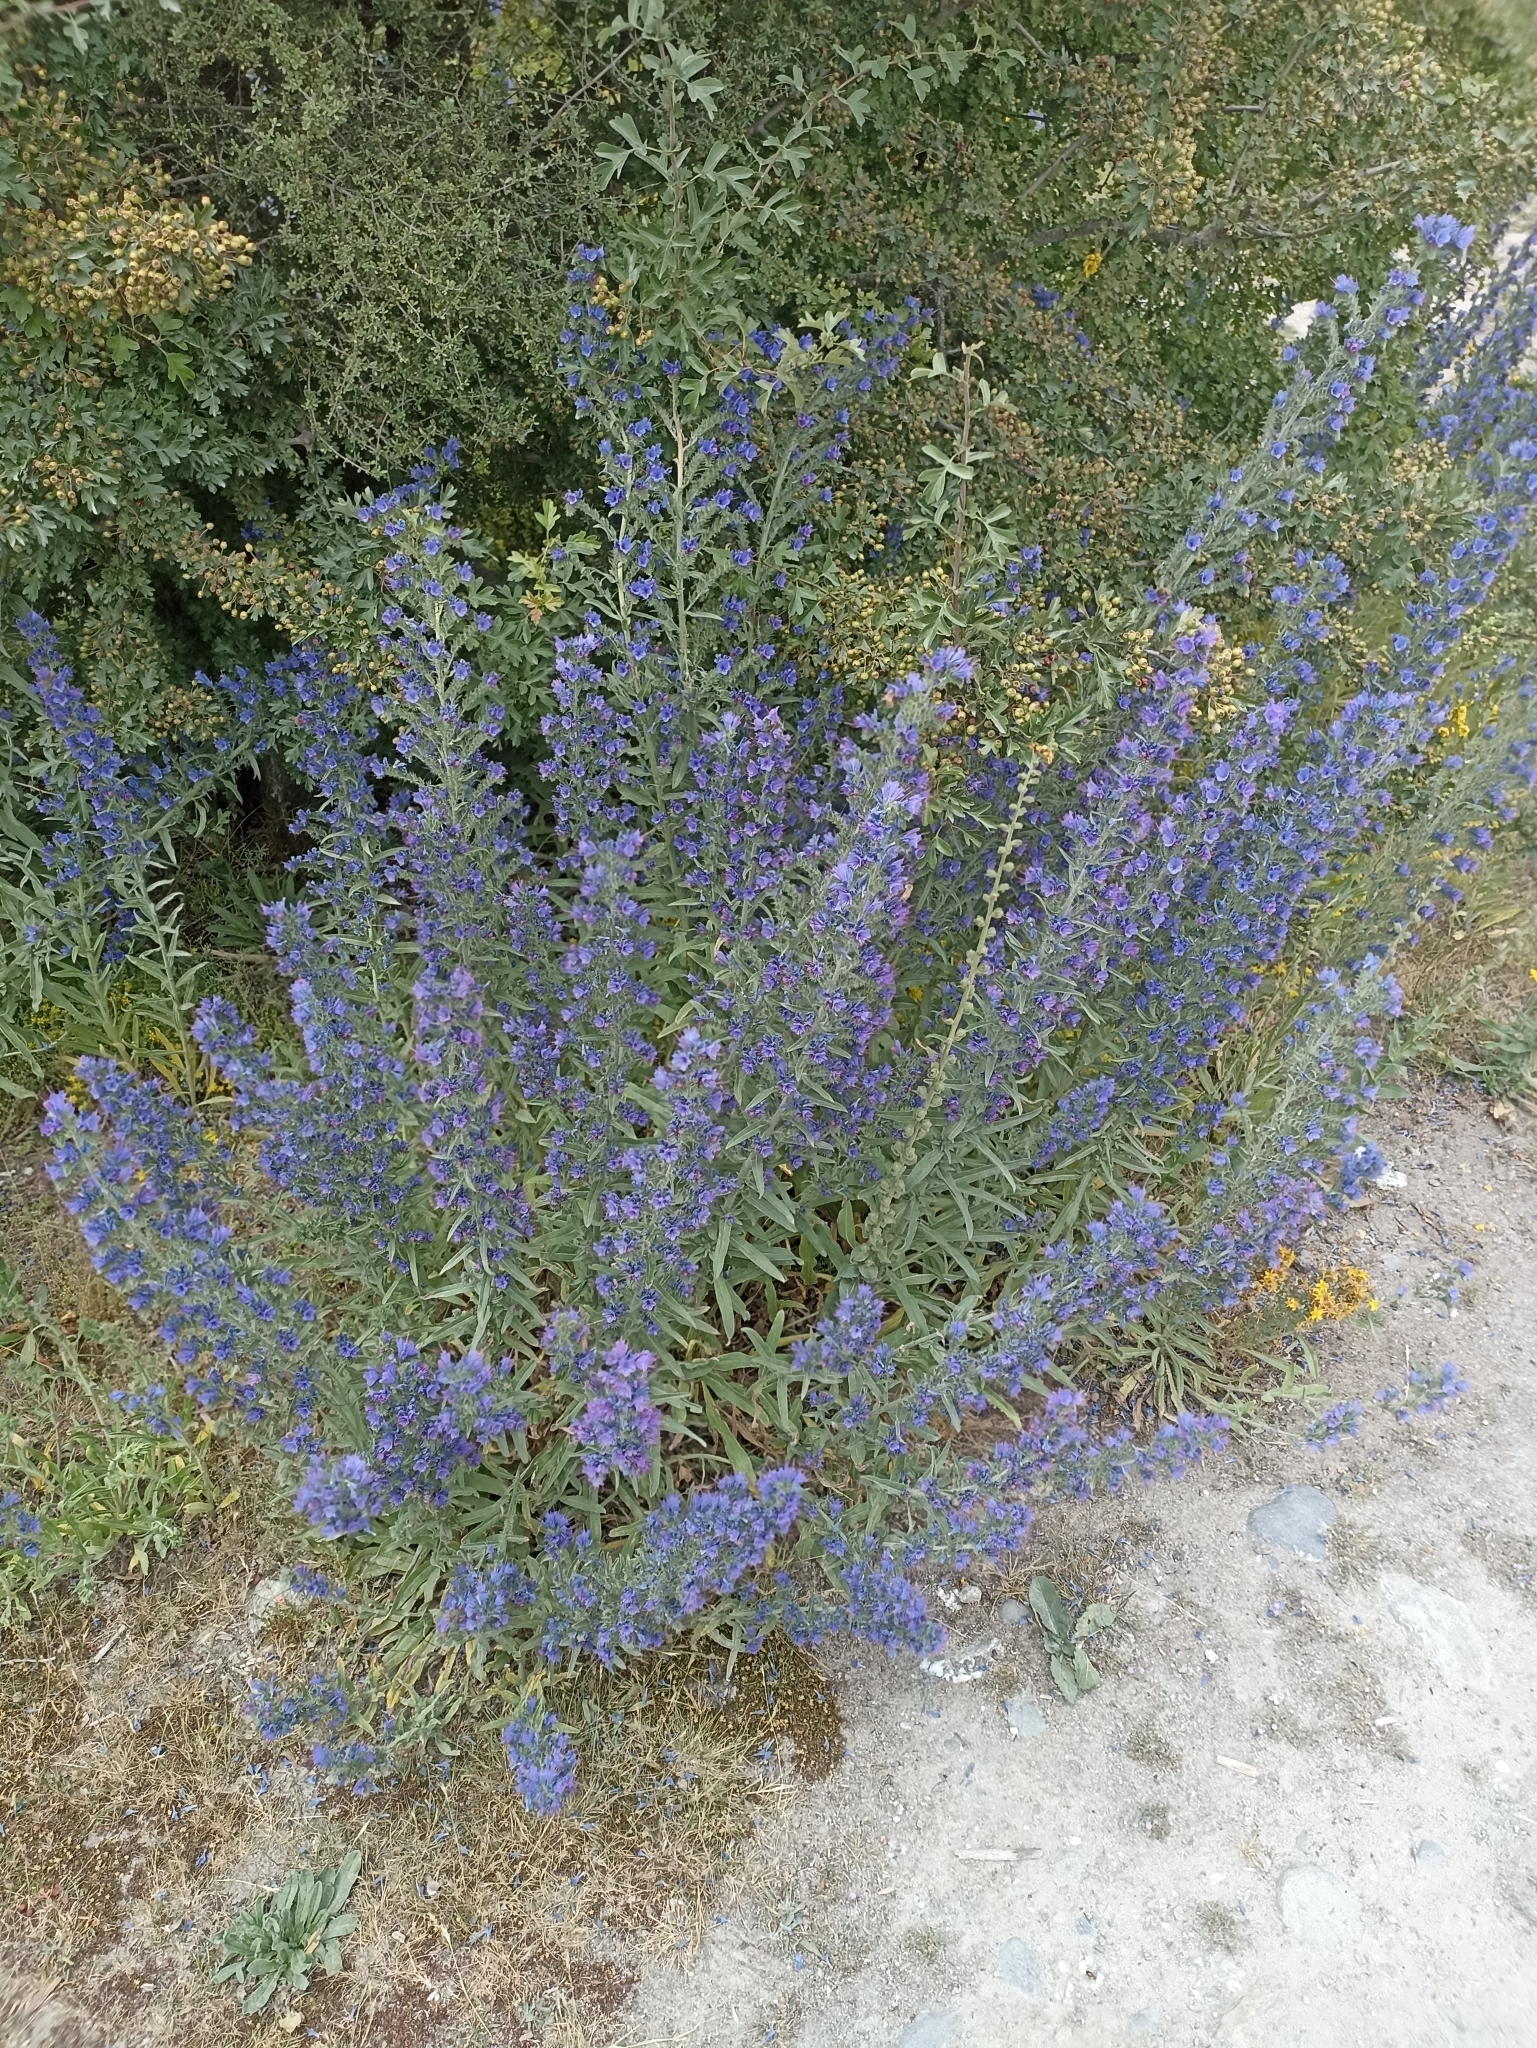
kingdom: Plantae
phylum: Tracheophyta
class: Magnoliopsida
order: Boraginales
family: Boraginaceae
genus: Echium
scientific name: Echium vulgare
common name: Common viper's bugloss
